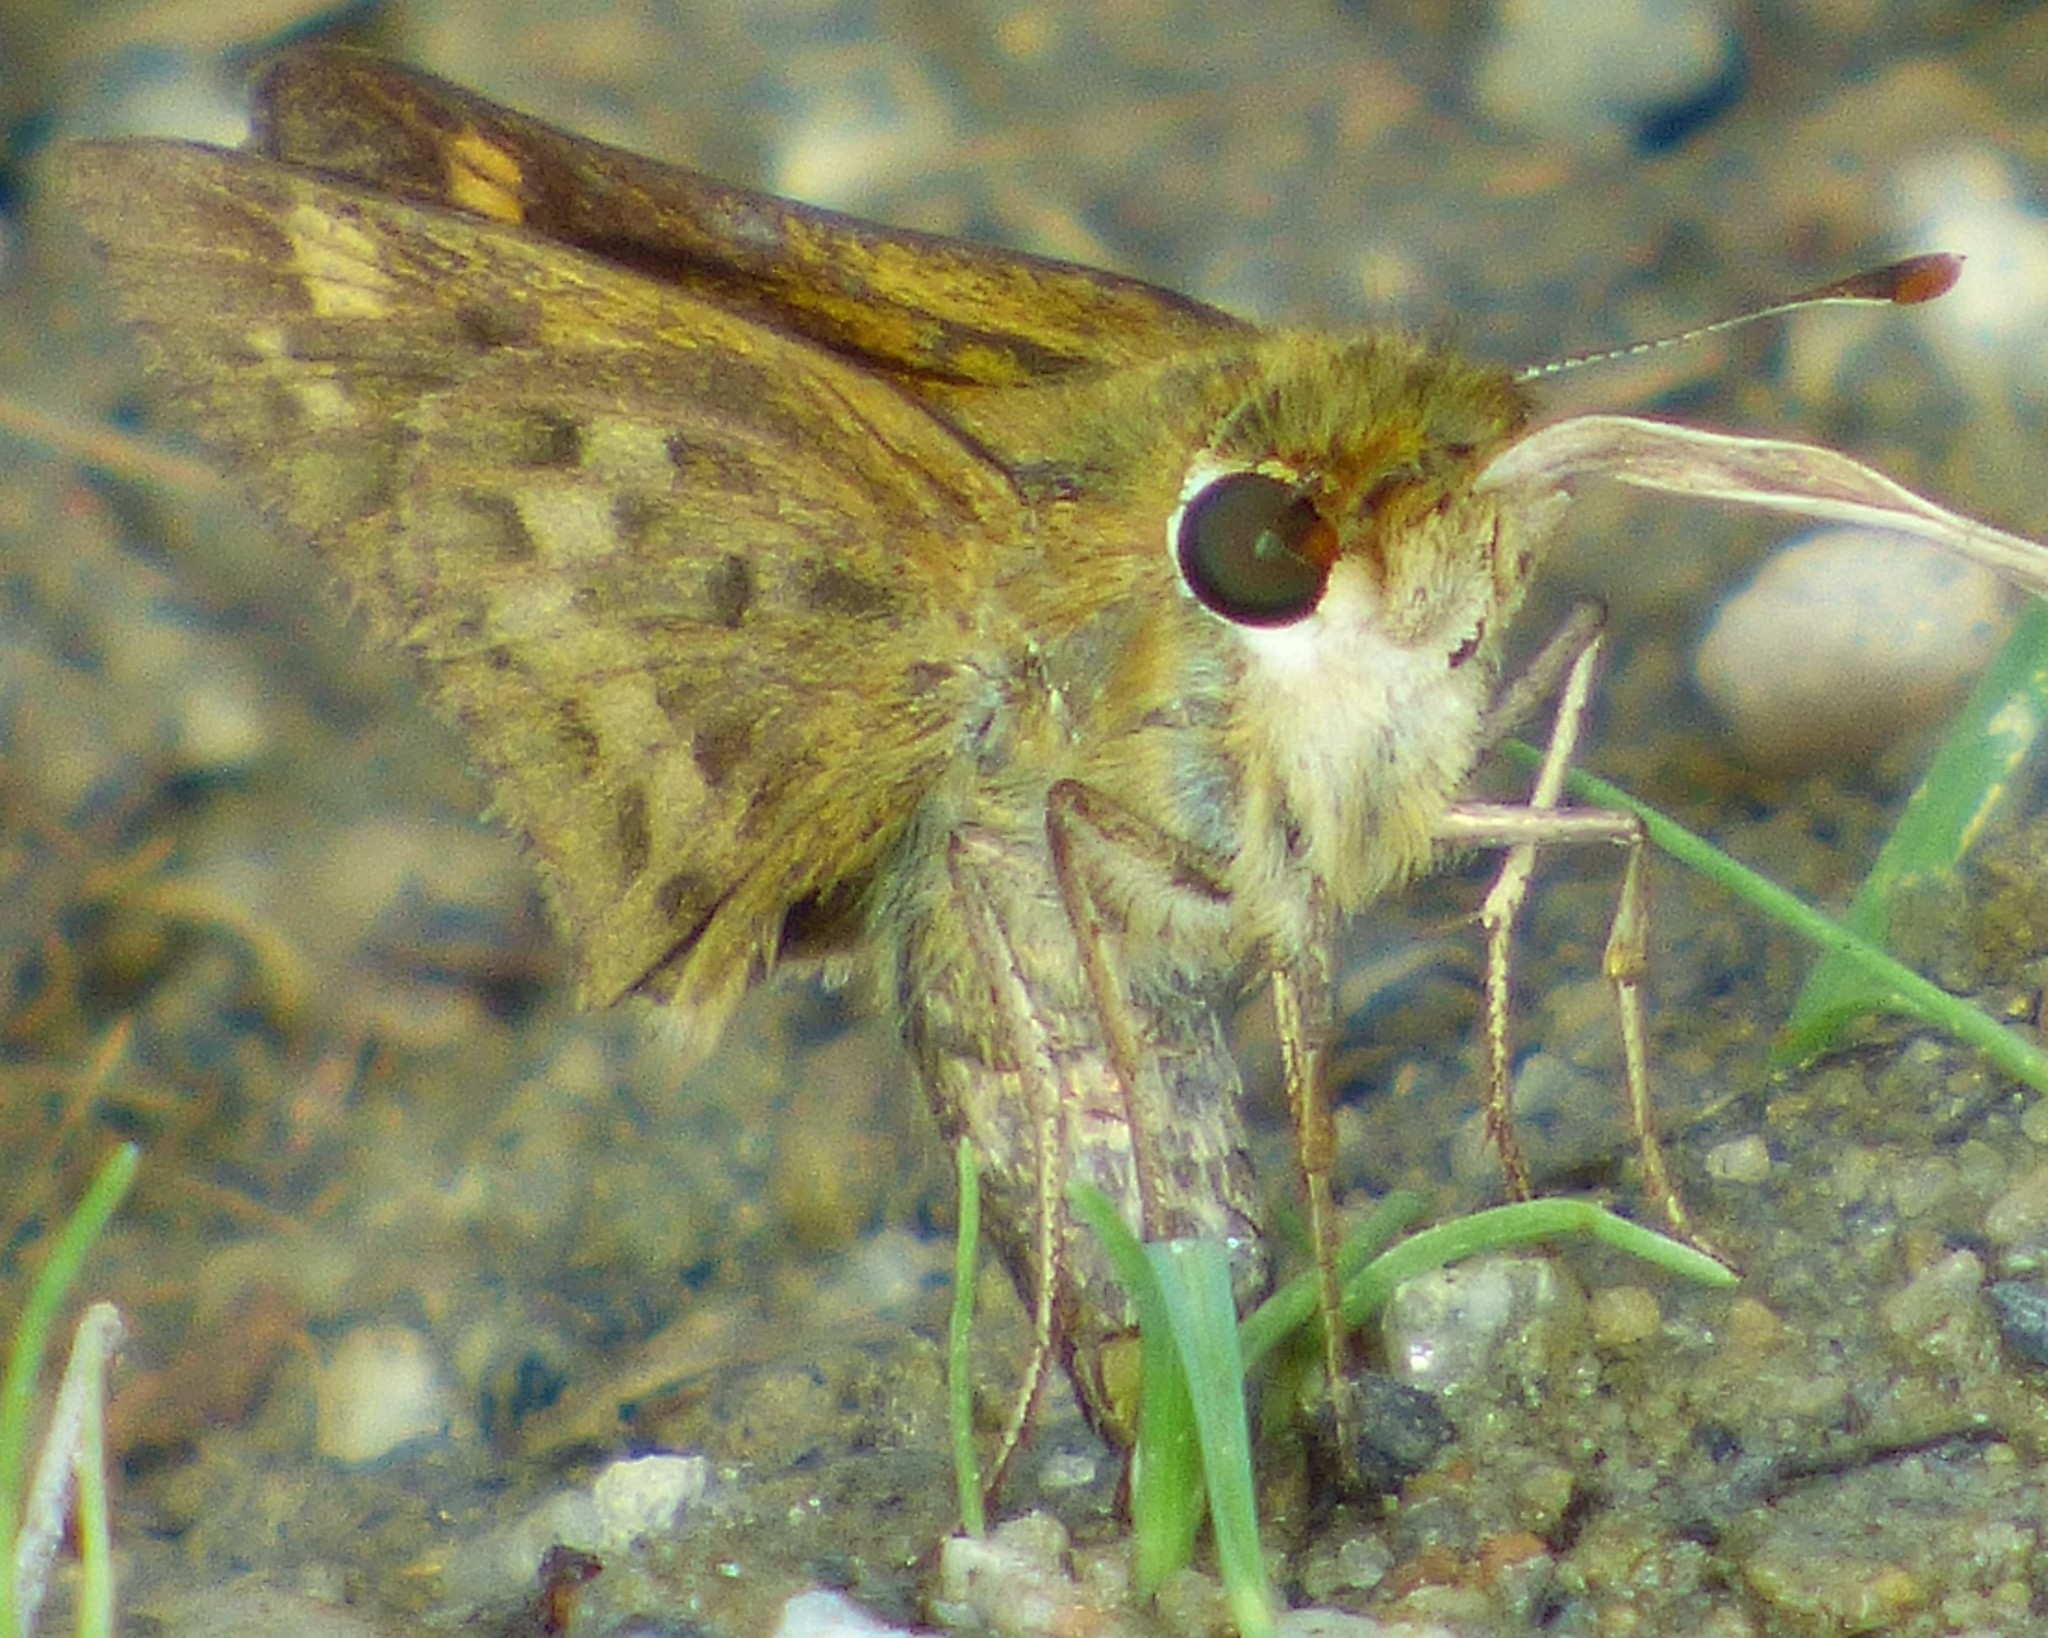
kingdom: Animalia
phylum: Arthropoda
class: Insecta
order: Lepidoptera
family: Hesperiidae
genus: Hylephila
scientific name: Hylephila phyleus
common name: Fiery skipper
